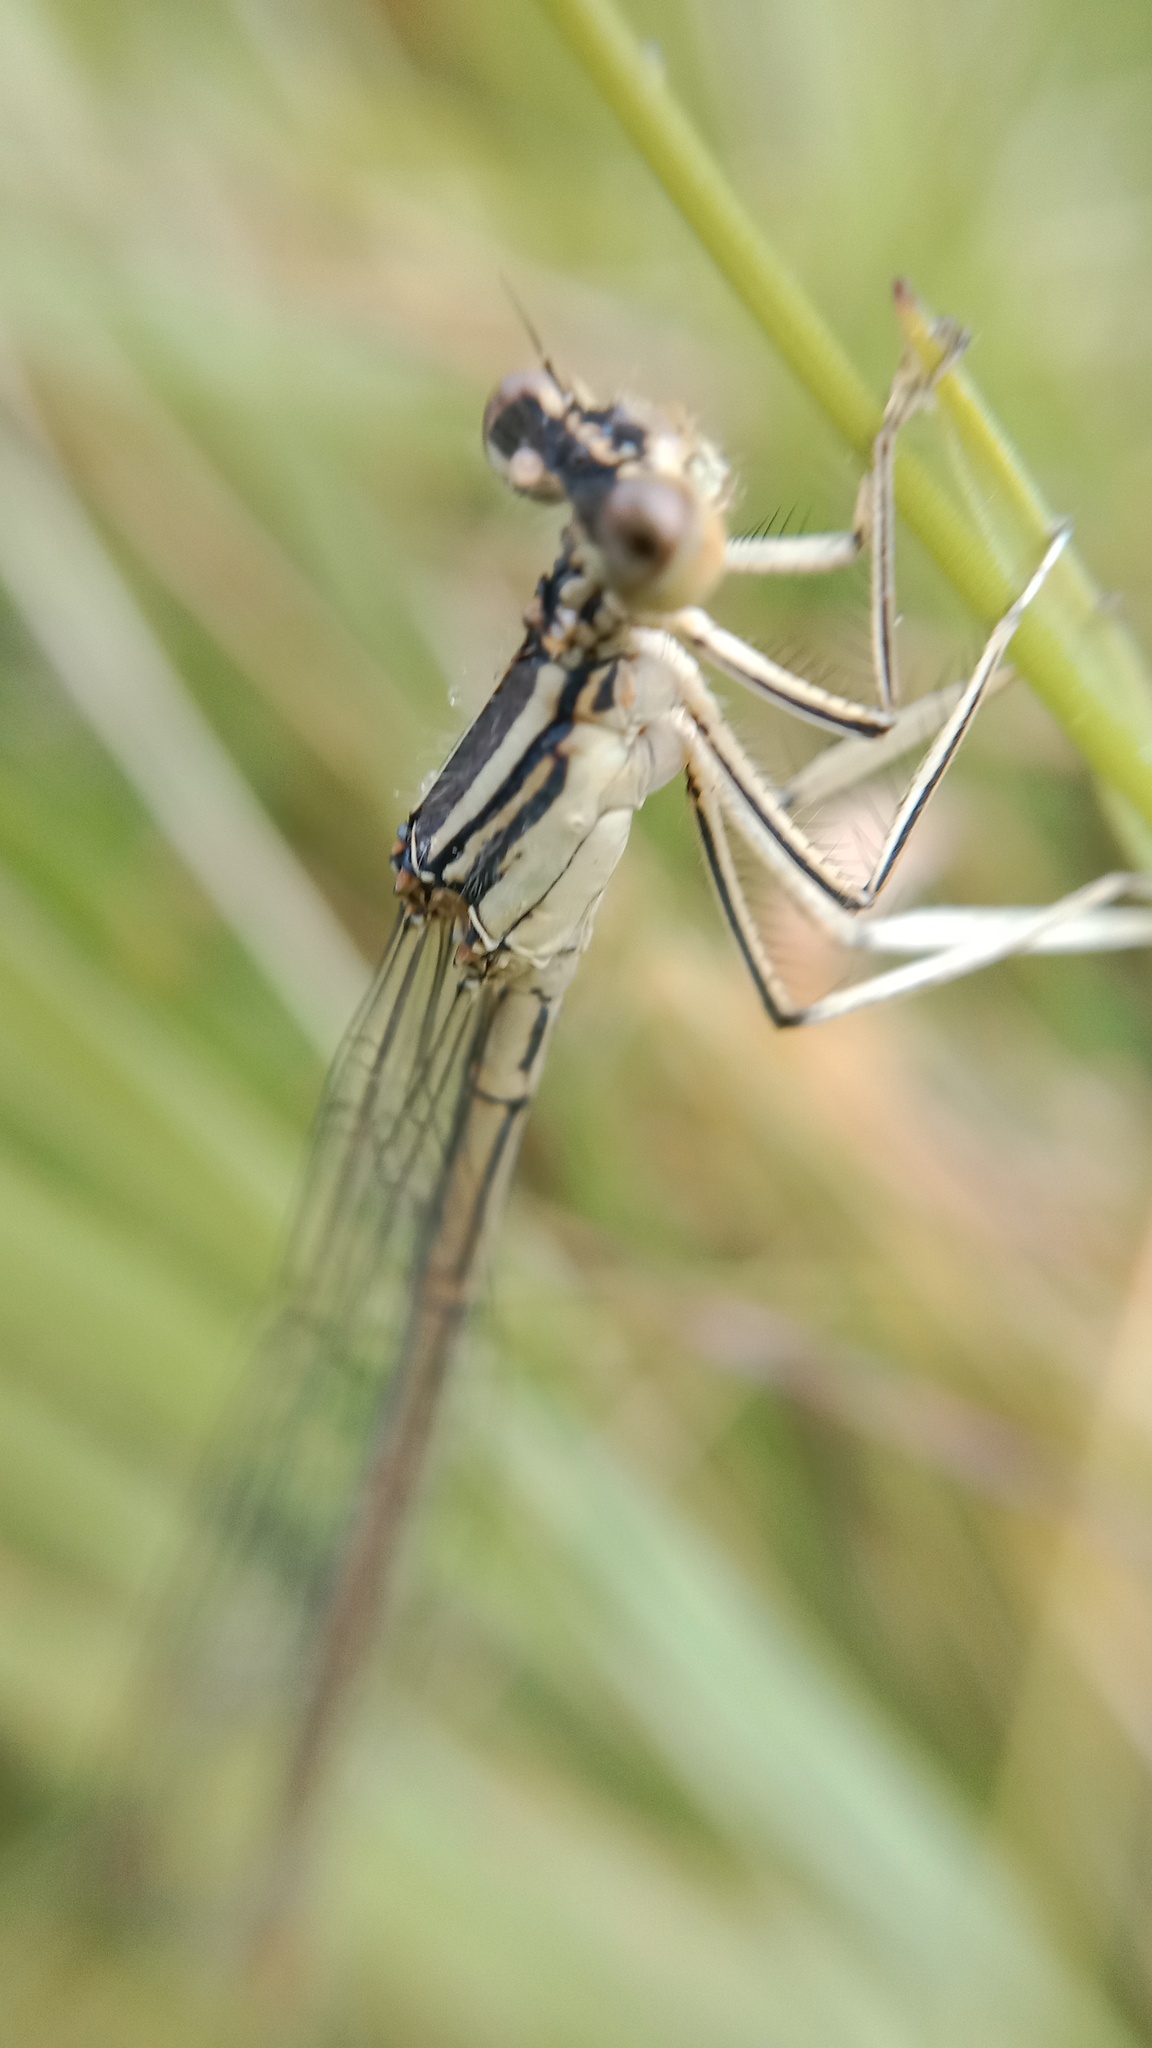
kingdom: Animalia
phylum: Arthropoda
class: Insecta
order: Odonata
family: Platycnemididae
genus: Platycnemis
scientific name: Platycnemis pennipes
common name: White-legged damselfly
